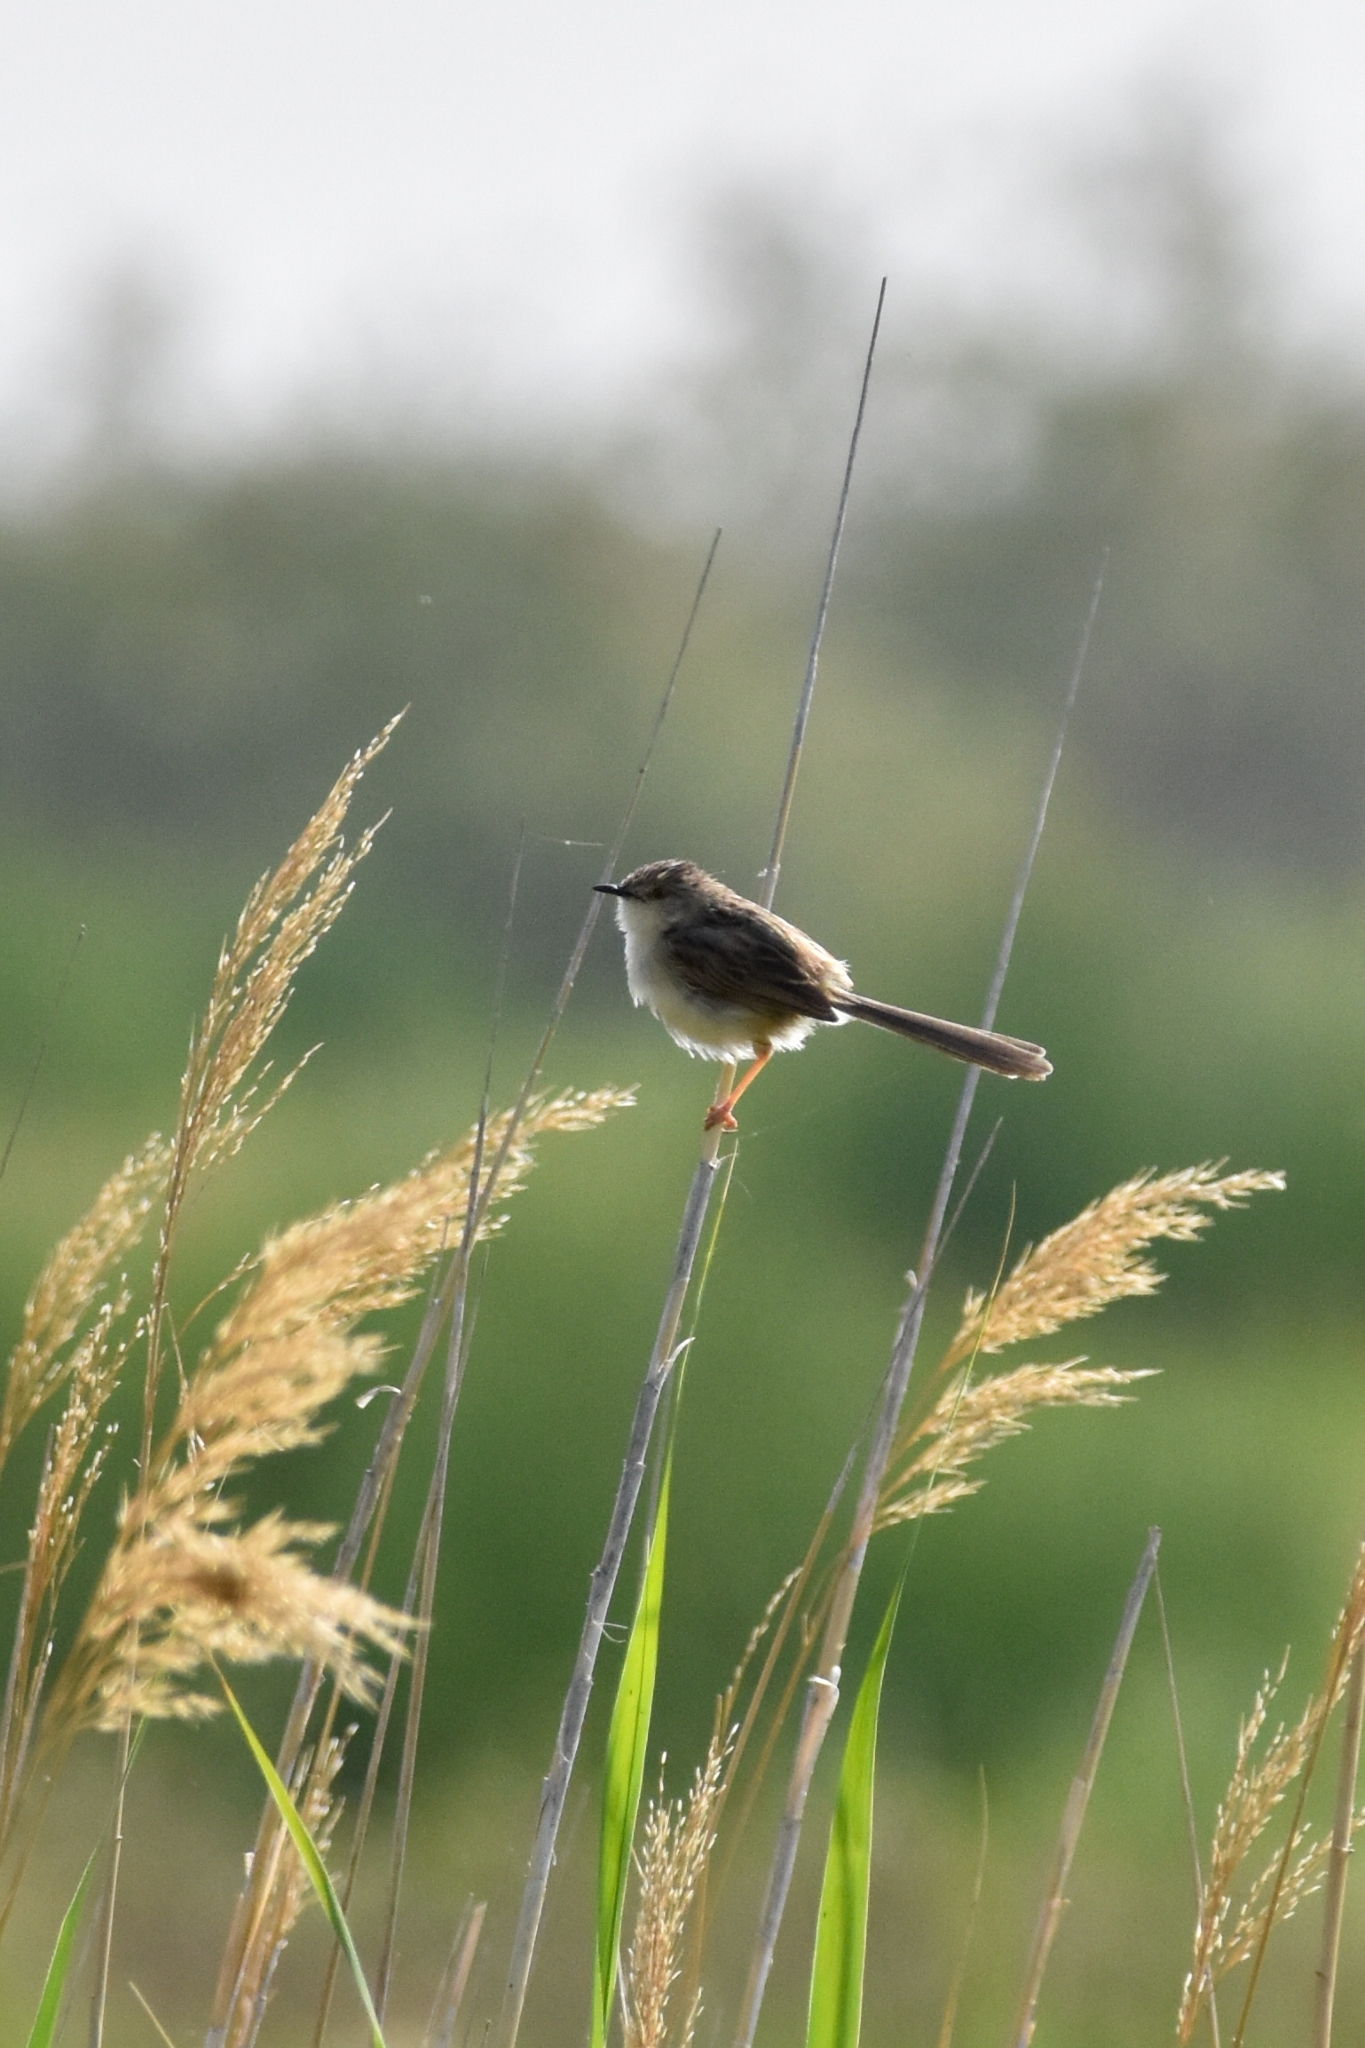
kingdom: Animalia
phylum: Chordata
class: Aves
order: Passeriformes
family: Cisticolidae
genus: Prinia
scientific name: Prinia lepida
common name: Delicate prinia
